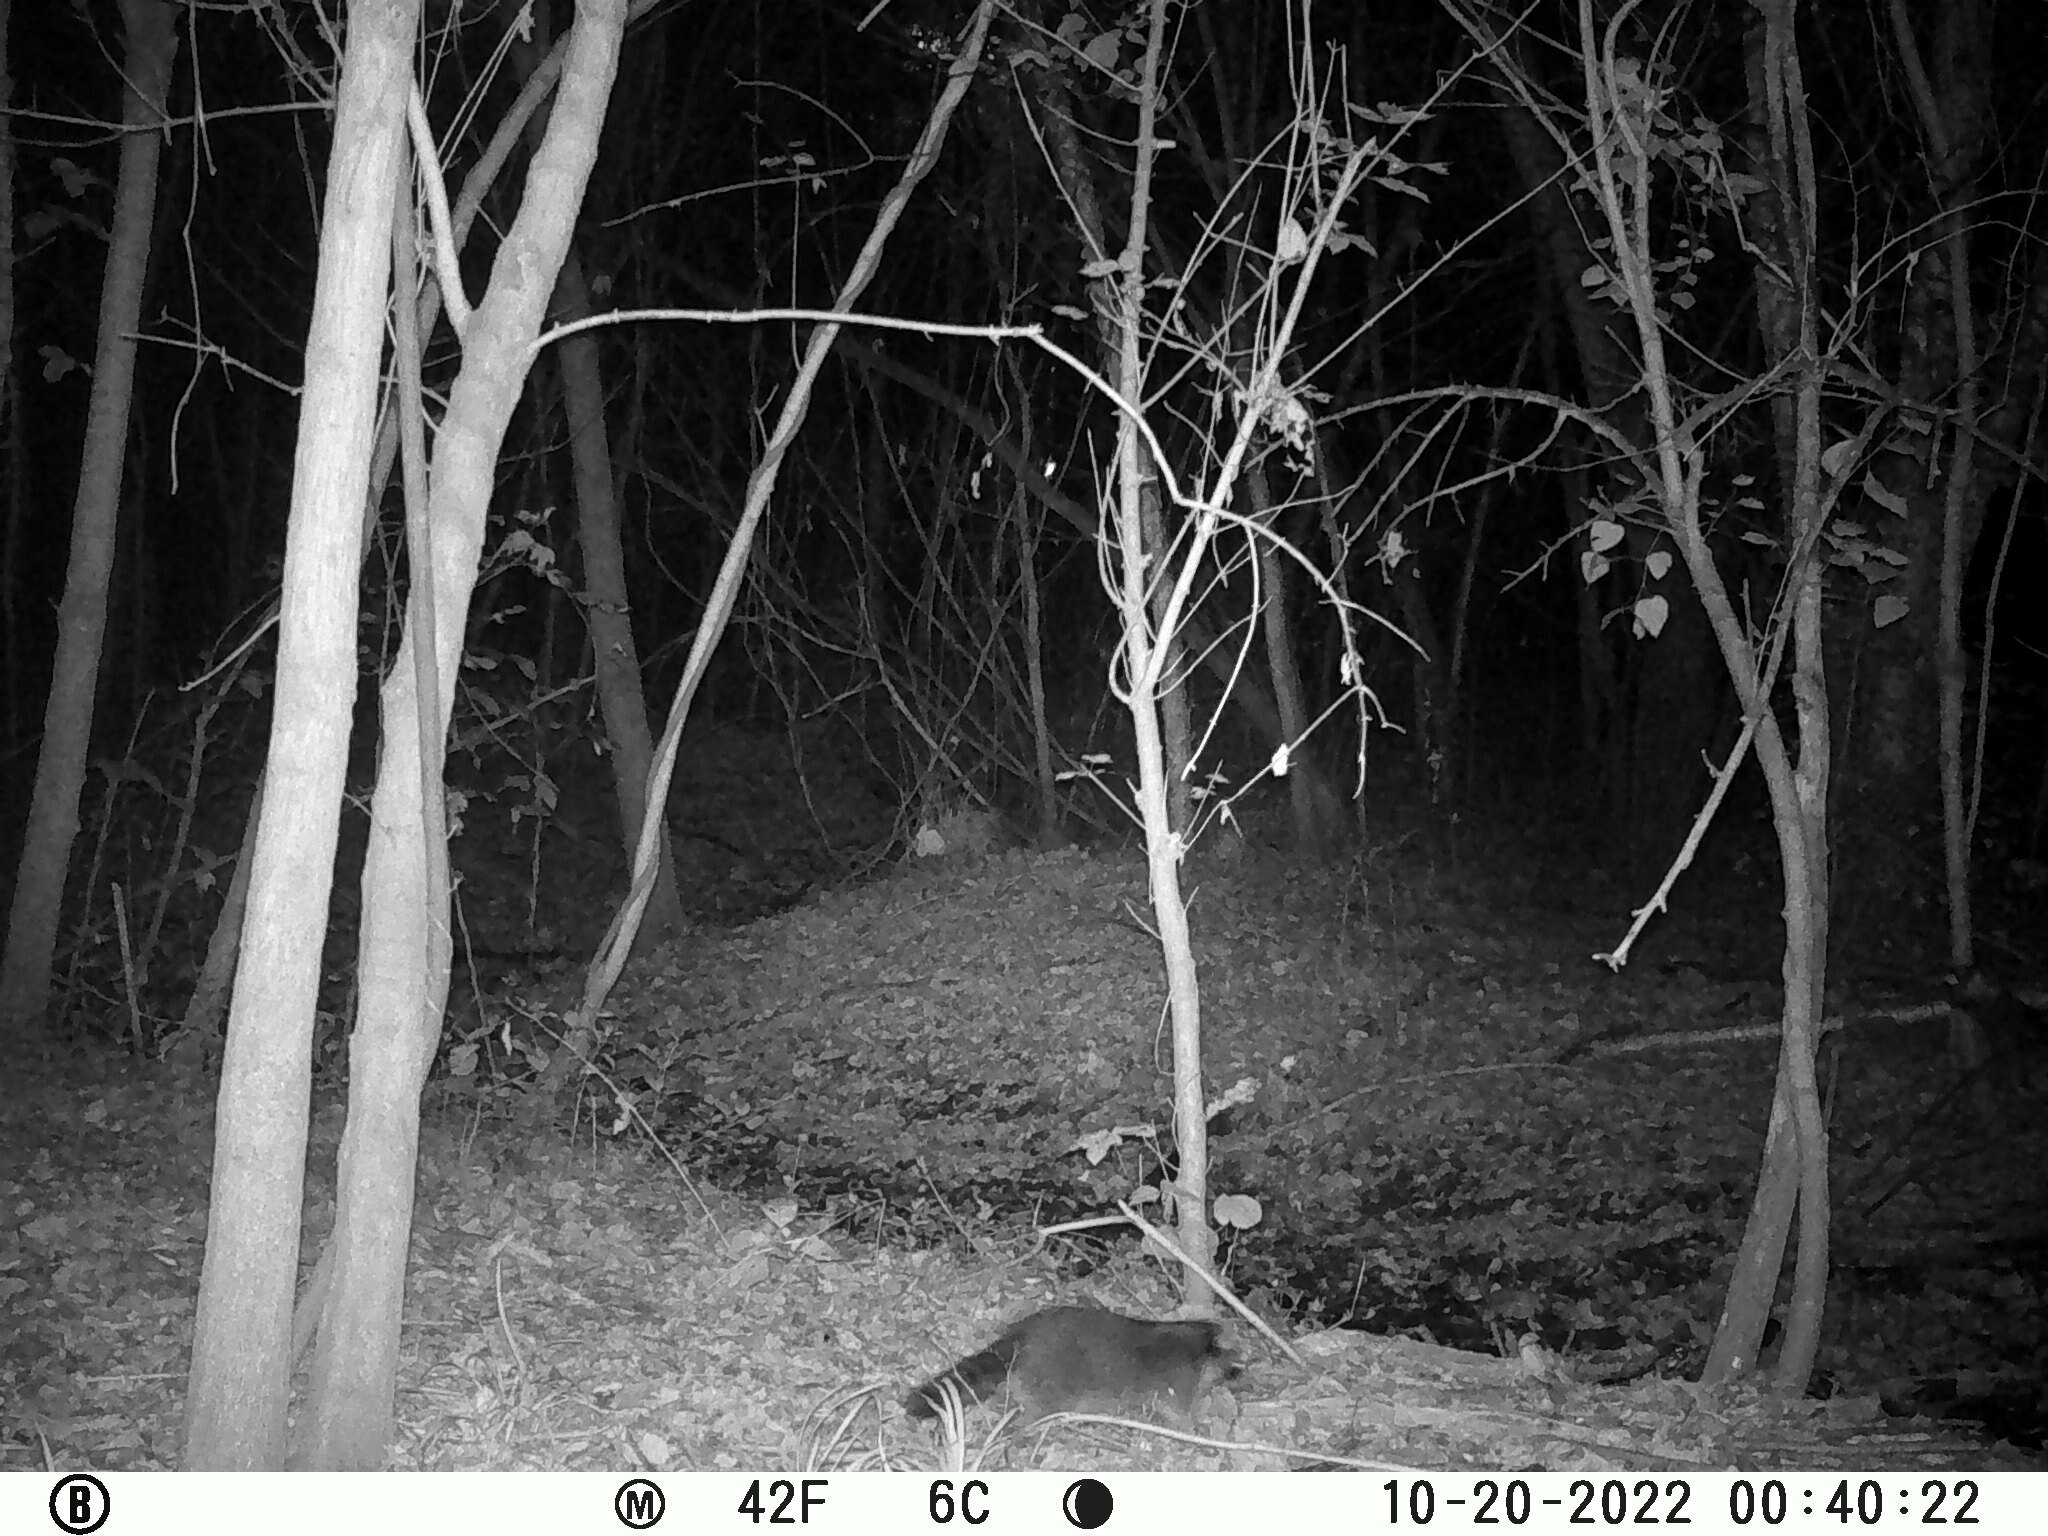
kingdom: Animalia
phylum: Chordata
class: Mammalia
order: Carnivora
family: Procyonidae
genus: Procyon
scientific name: Procyon lotor
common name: Raccoon
